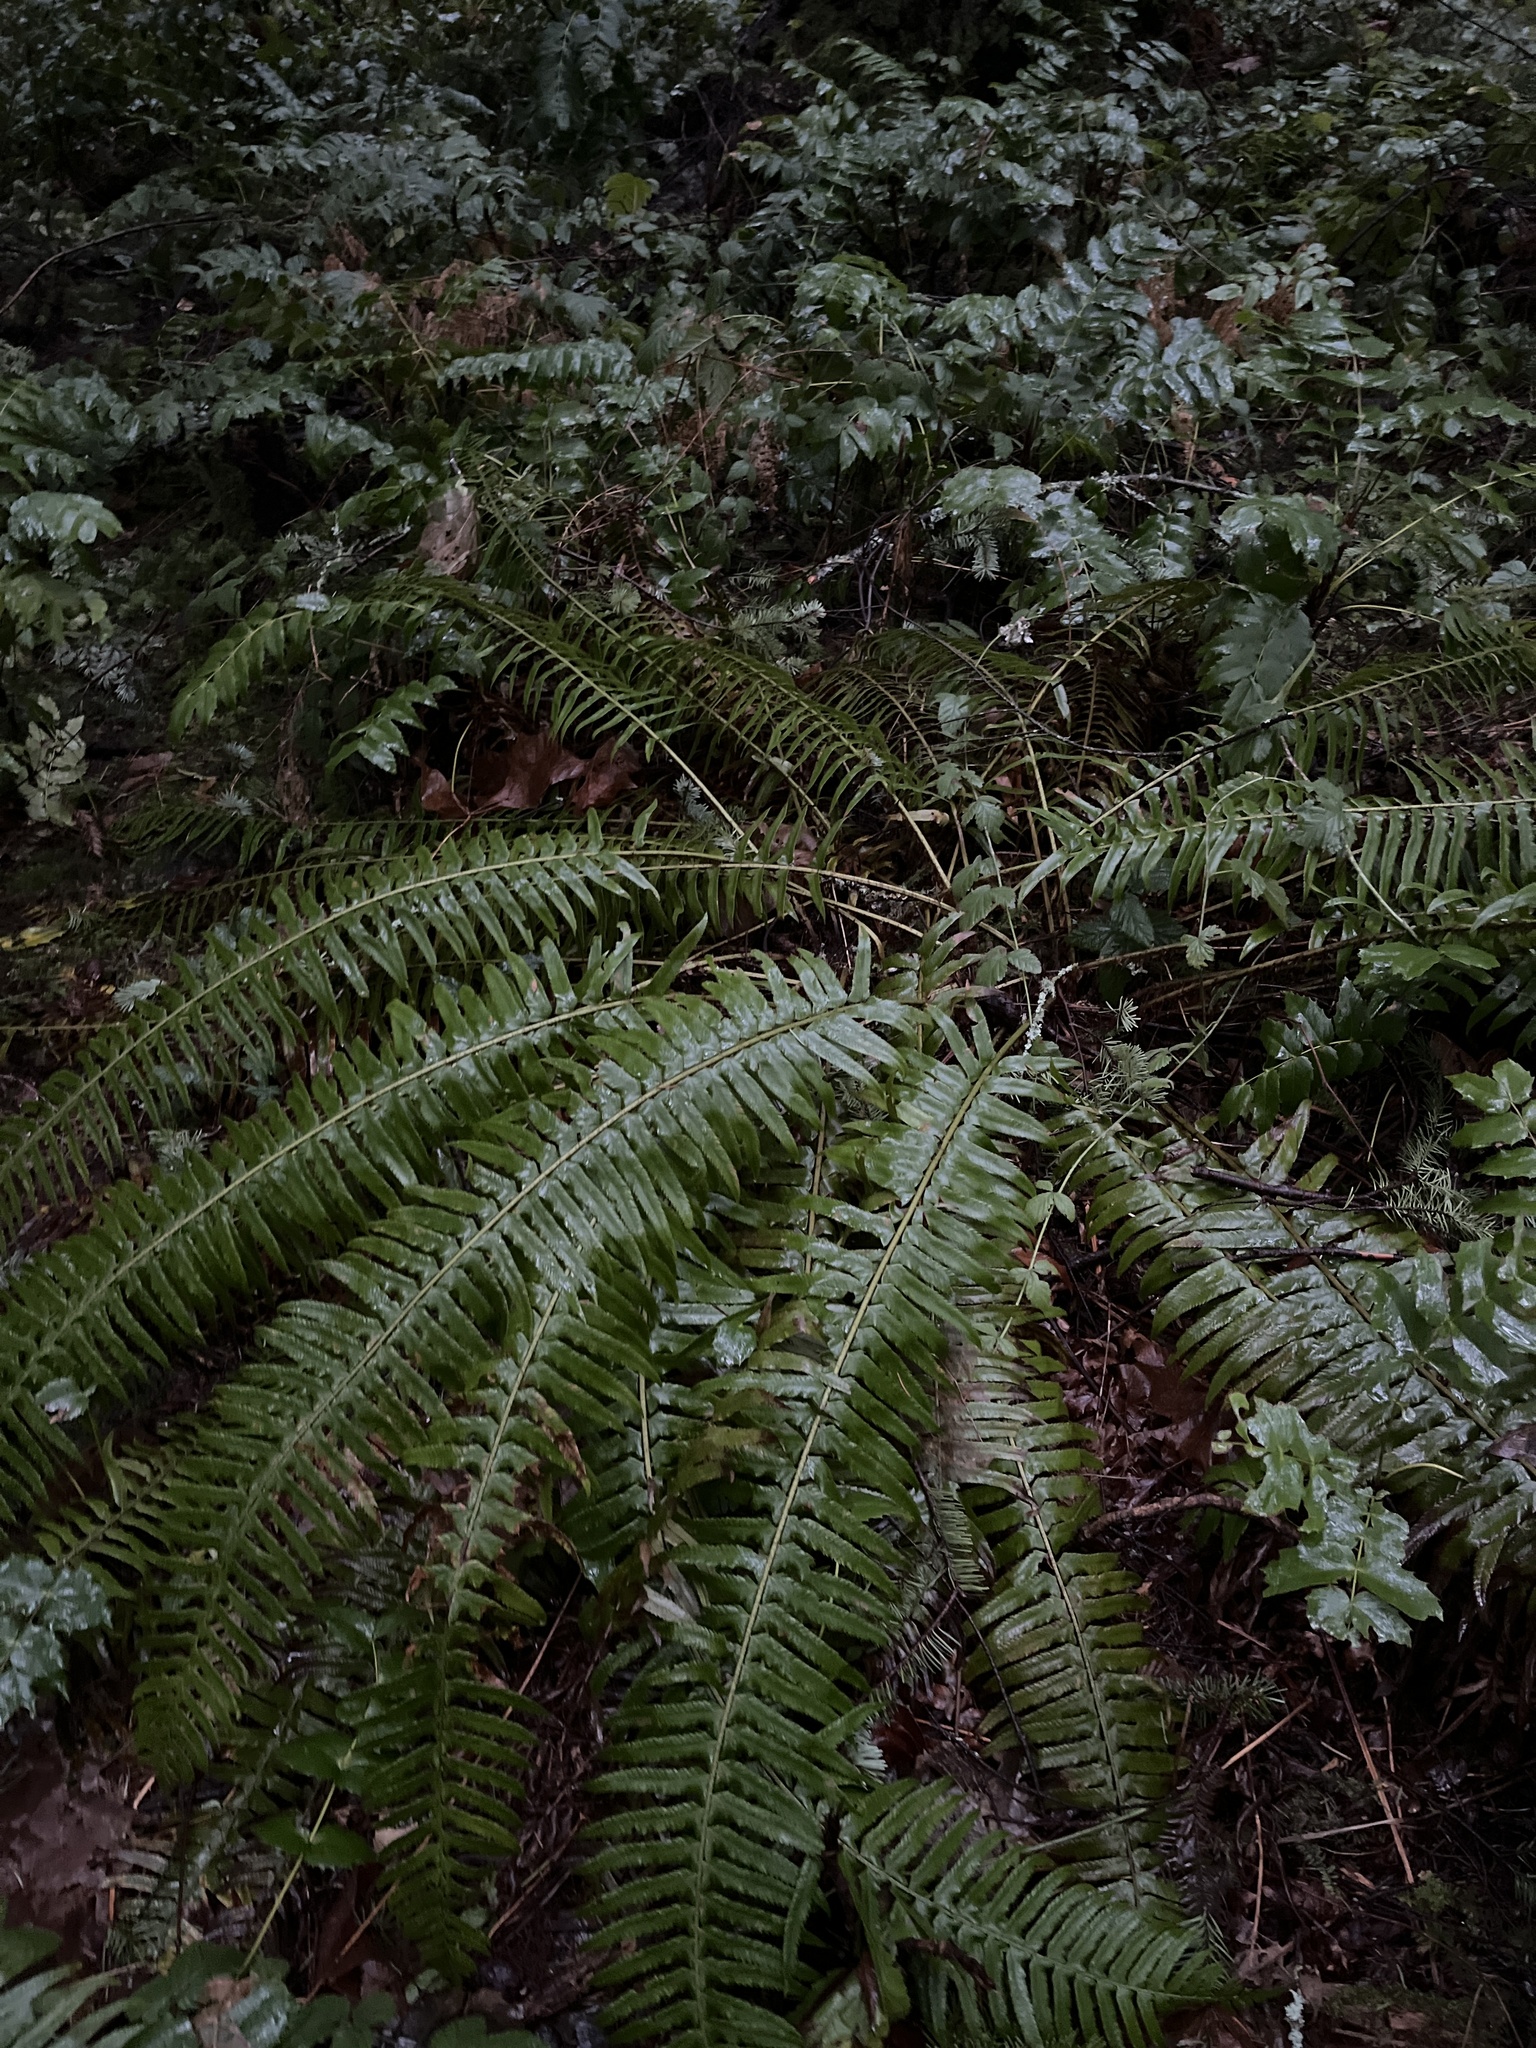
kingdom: Plantae
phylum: Tracheophyta
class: Polypodiopsida
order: Polypodiales
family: Dryopteridaceae
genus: Polystichum
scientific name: Polystichum munitum
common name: Western sword-fern
